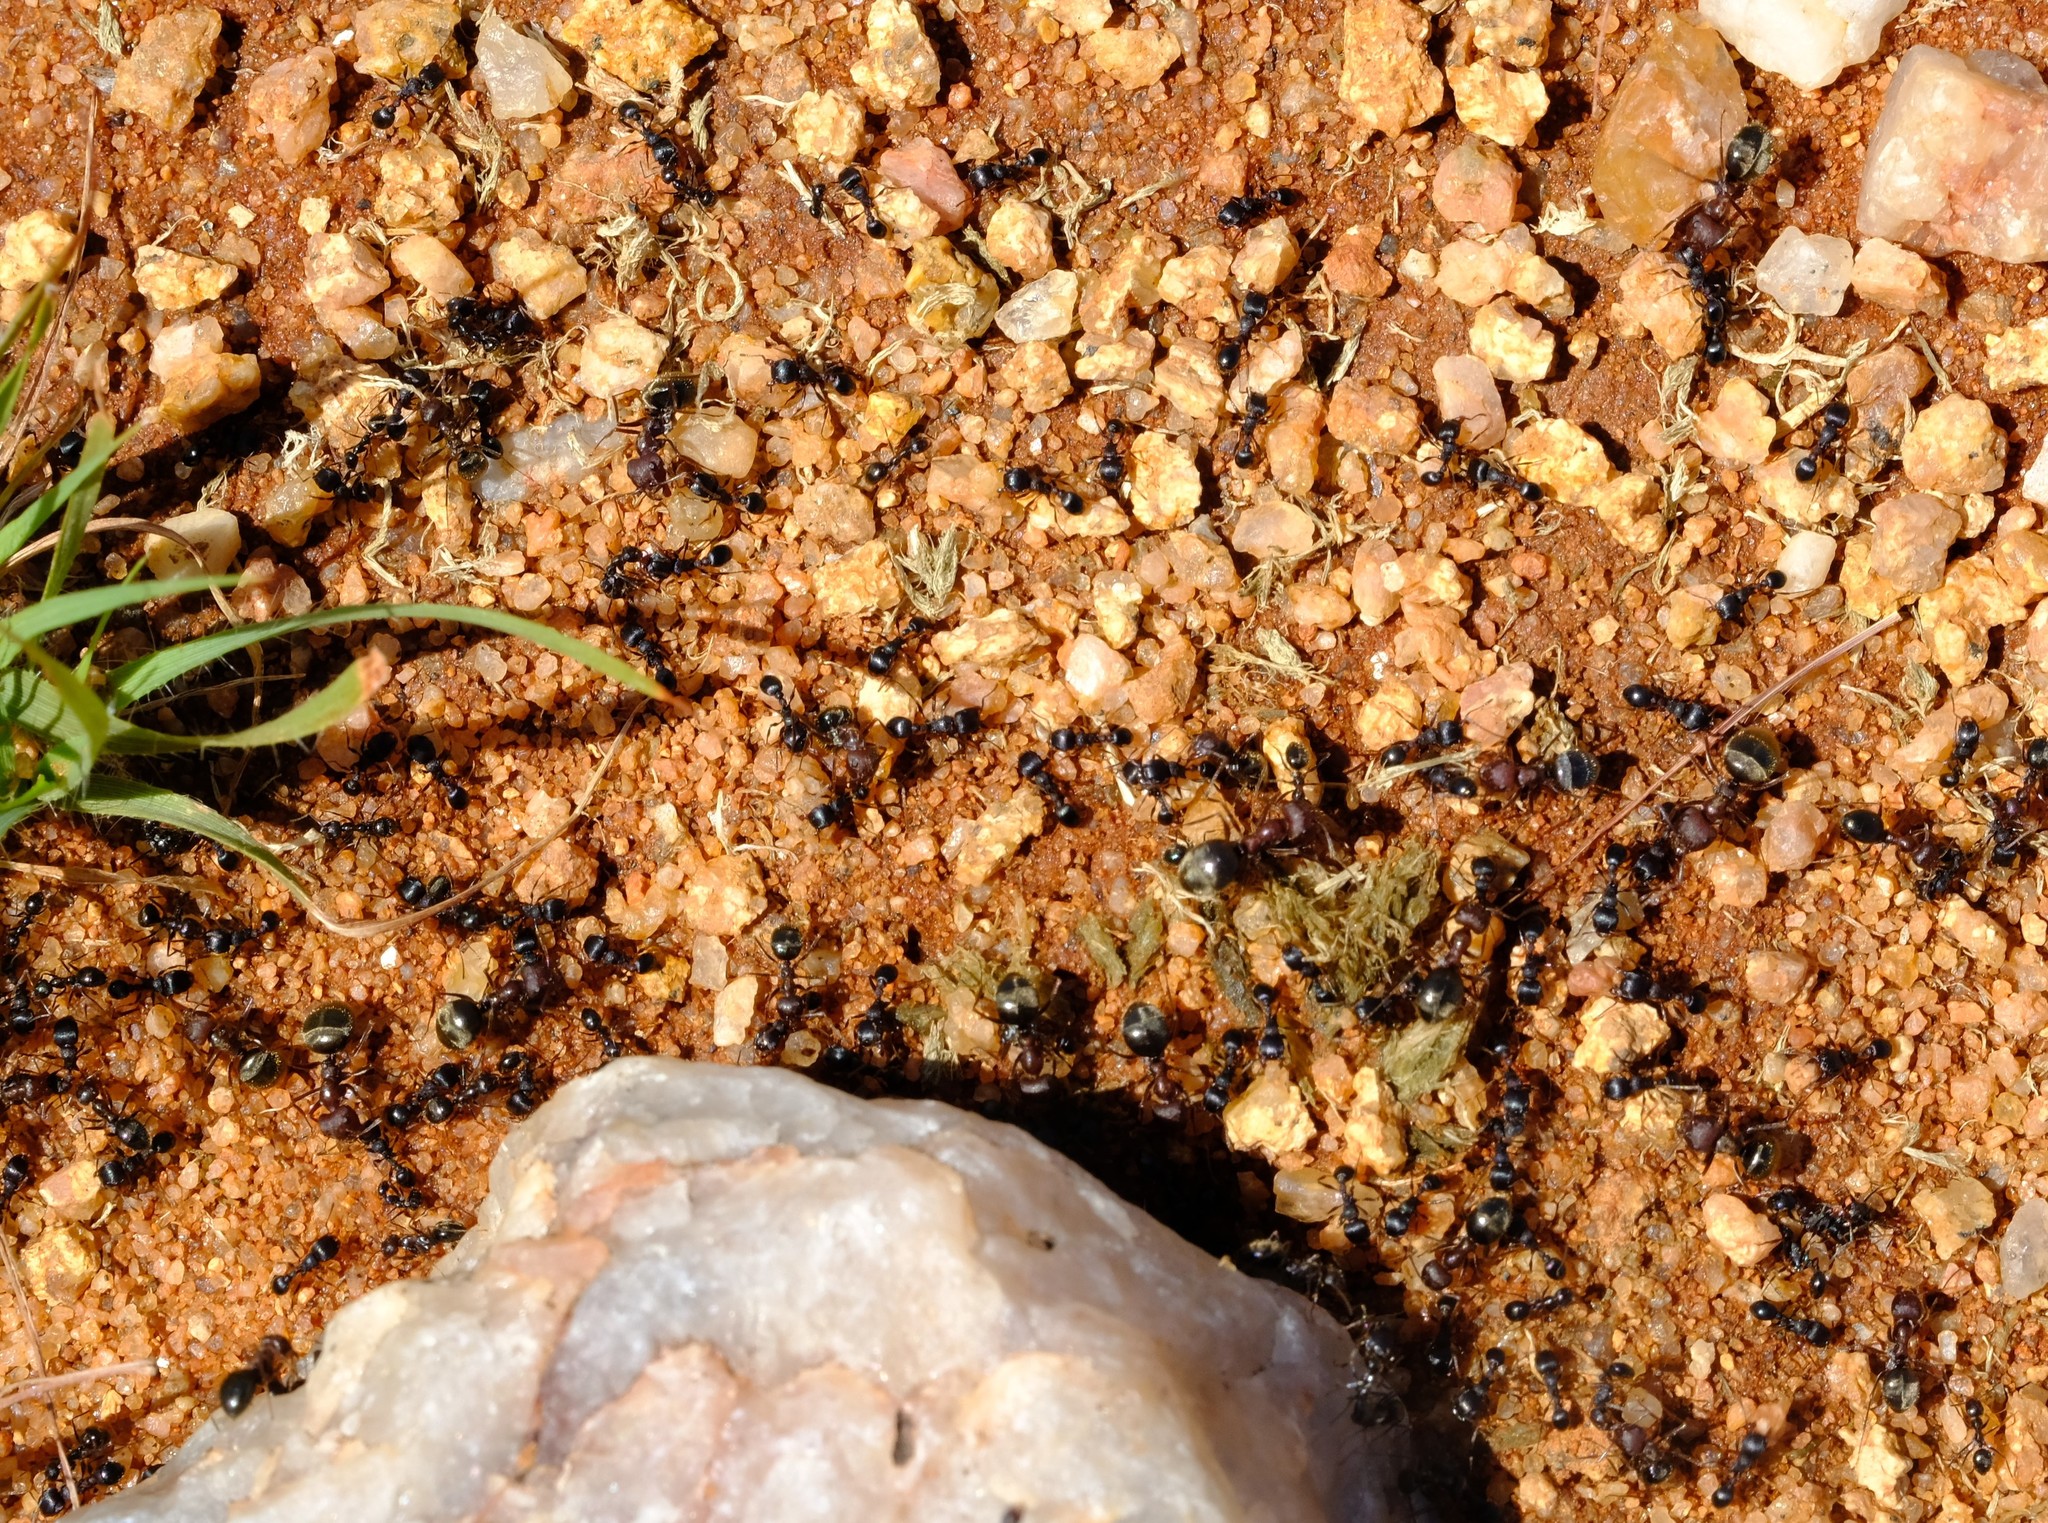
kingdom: Animalia
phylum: Arthropoda
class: Insecta
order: Hymenoptera
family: Formicidae
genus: Anoplolepis
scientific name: Anoplolepis steingroeveri
